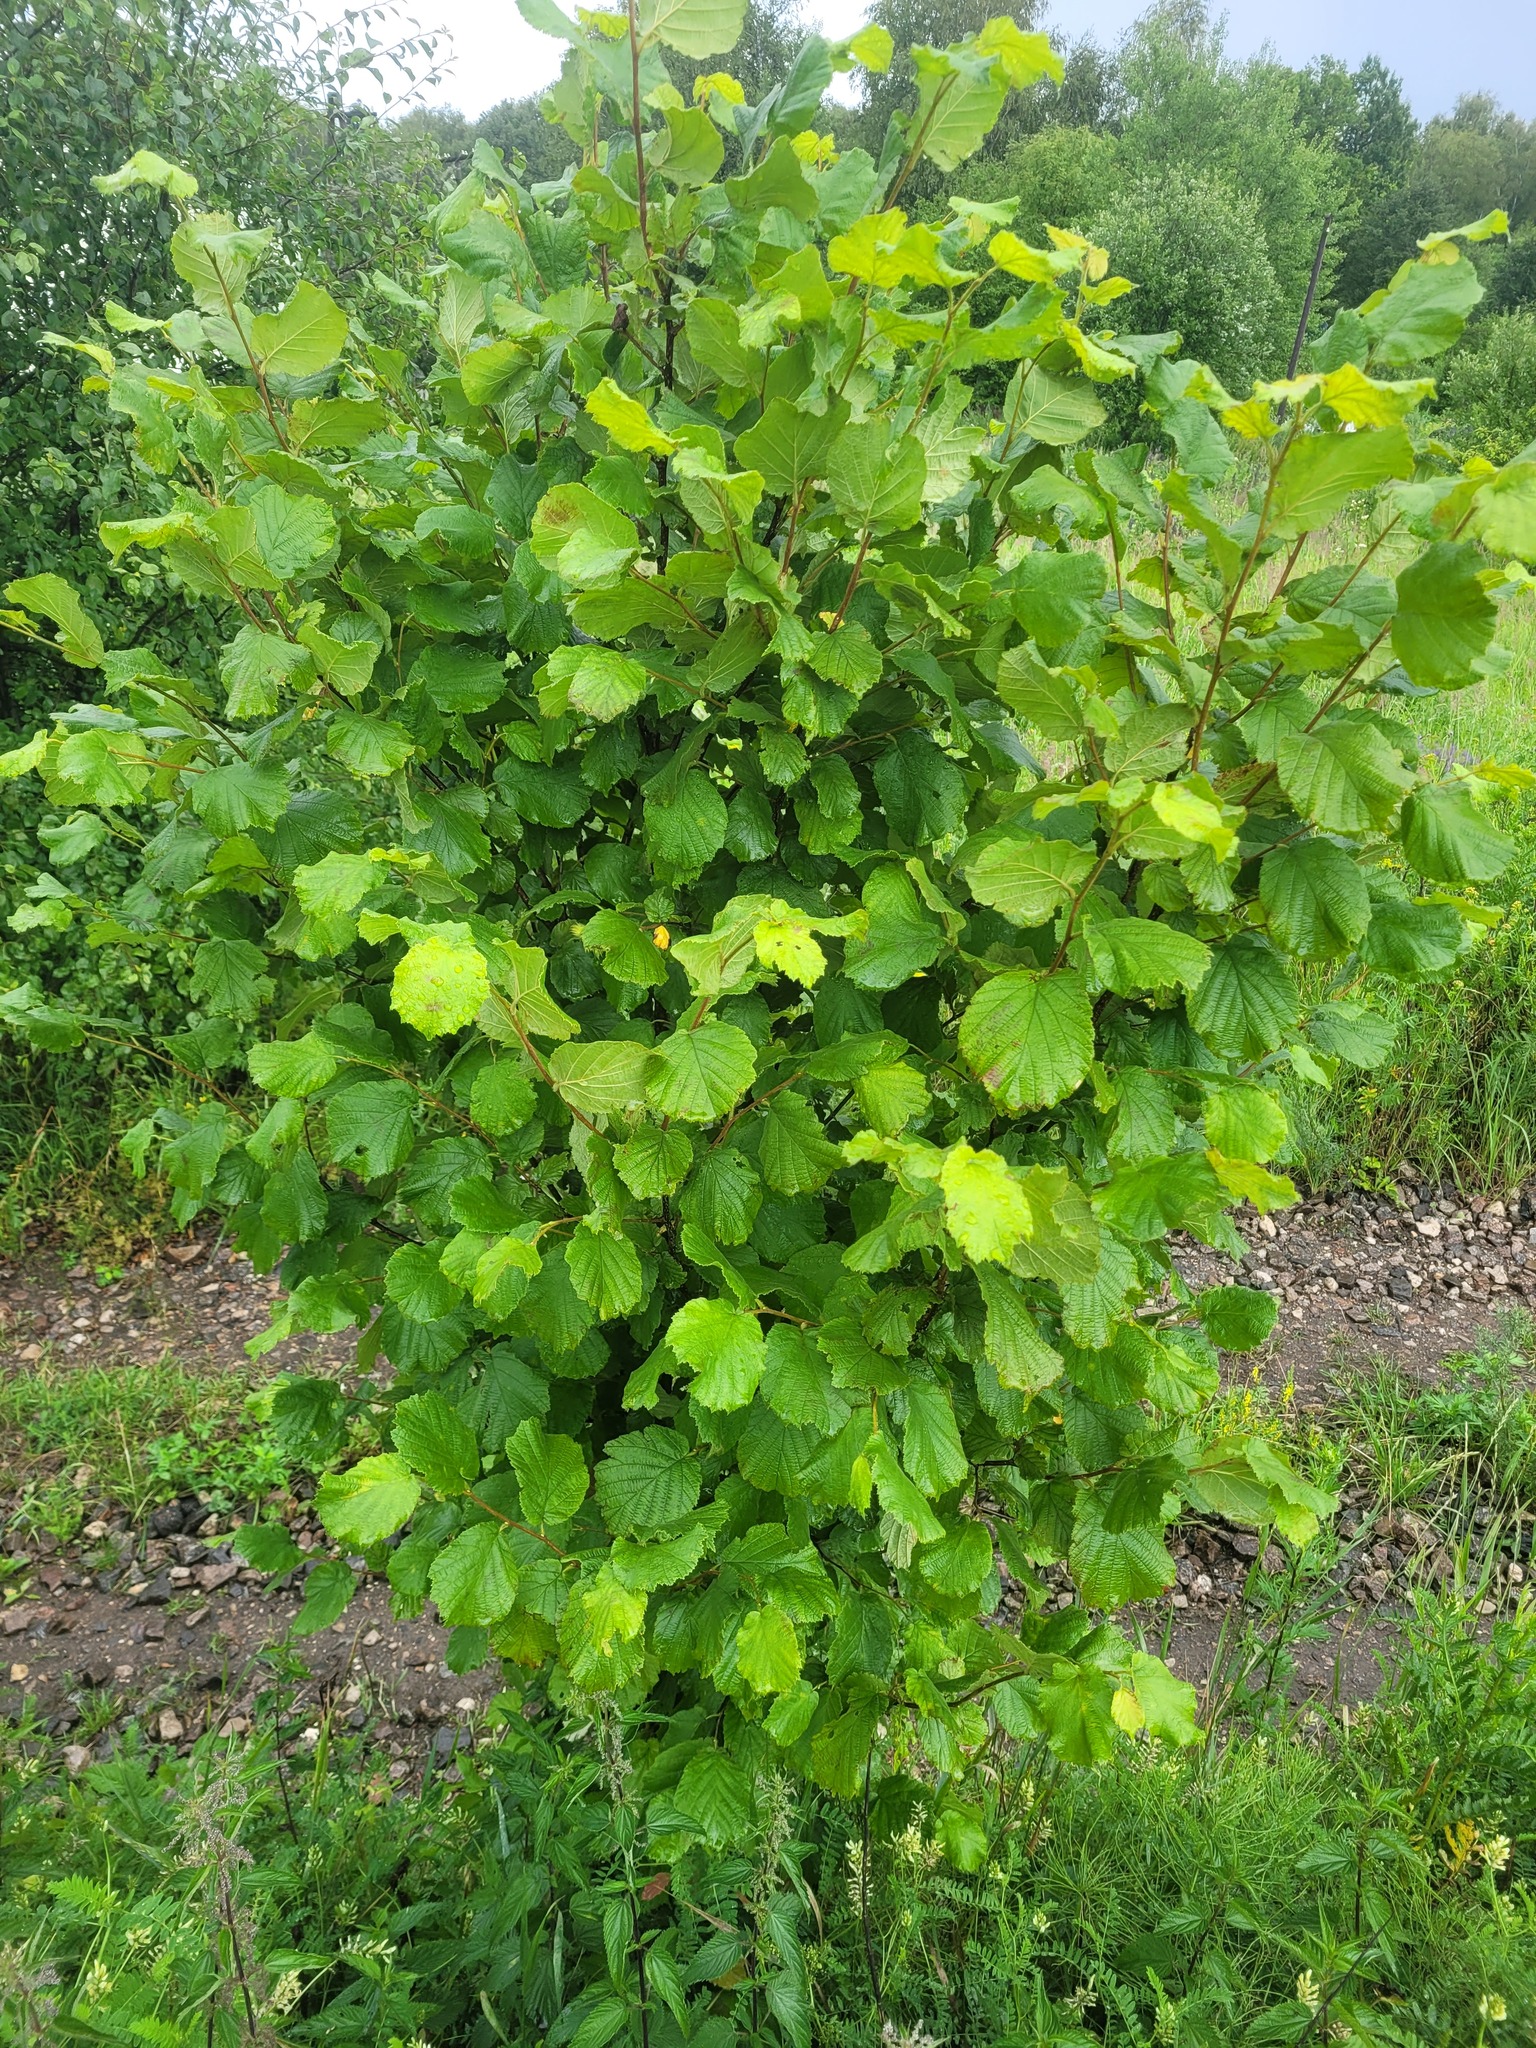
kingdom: Plantae
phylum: Tracheophyta
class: Magnoliopsida
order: Fagales
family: Betulaceae
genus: Corylus
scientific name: Corylus avellana
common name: European hazel
